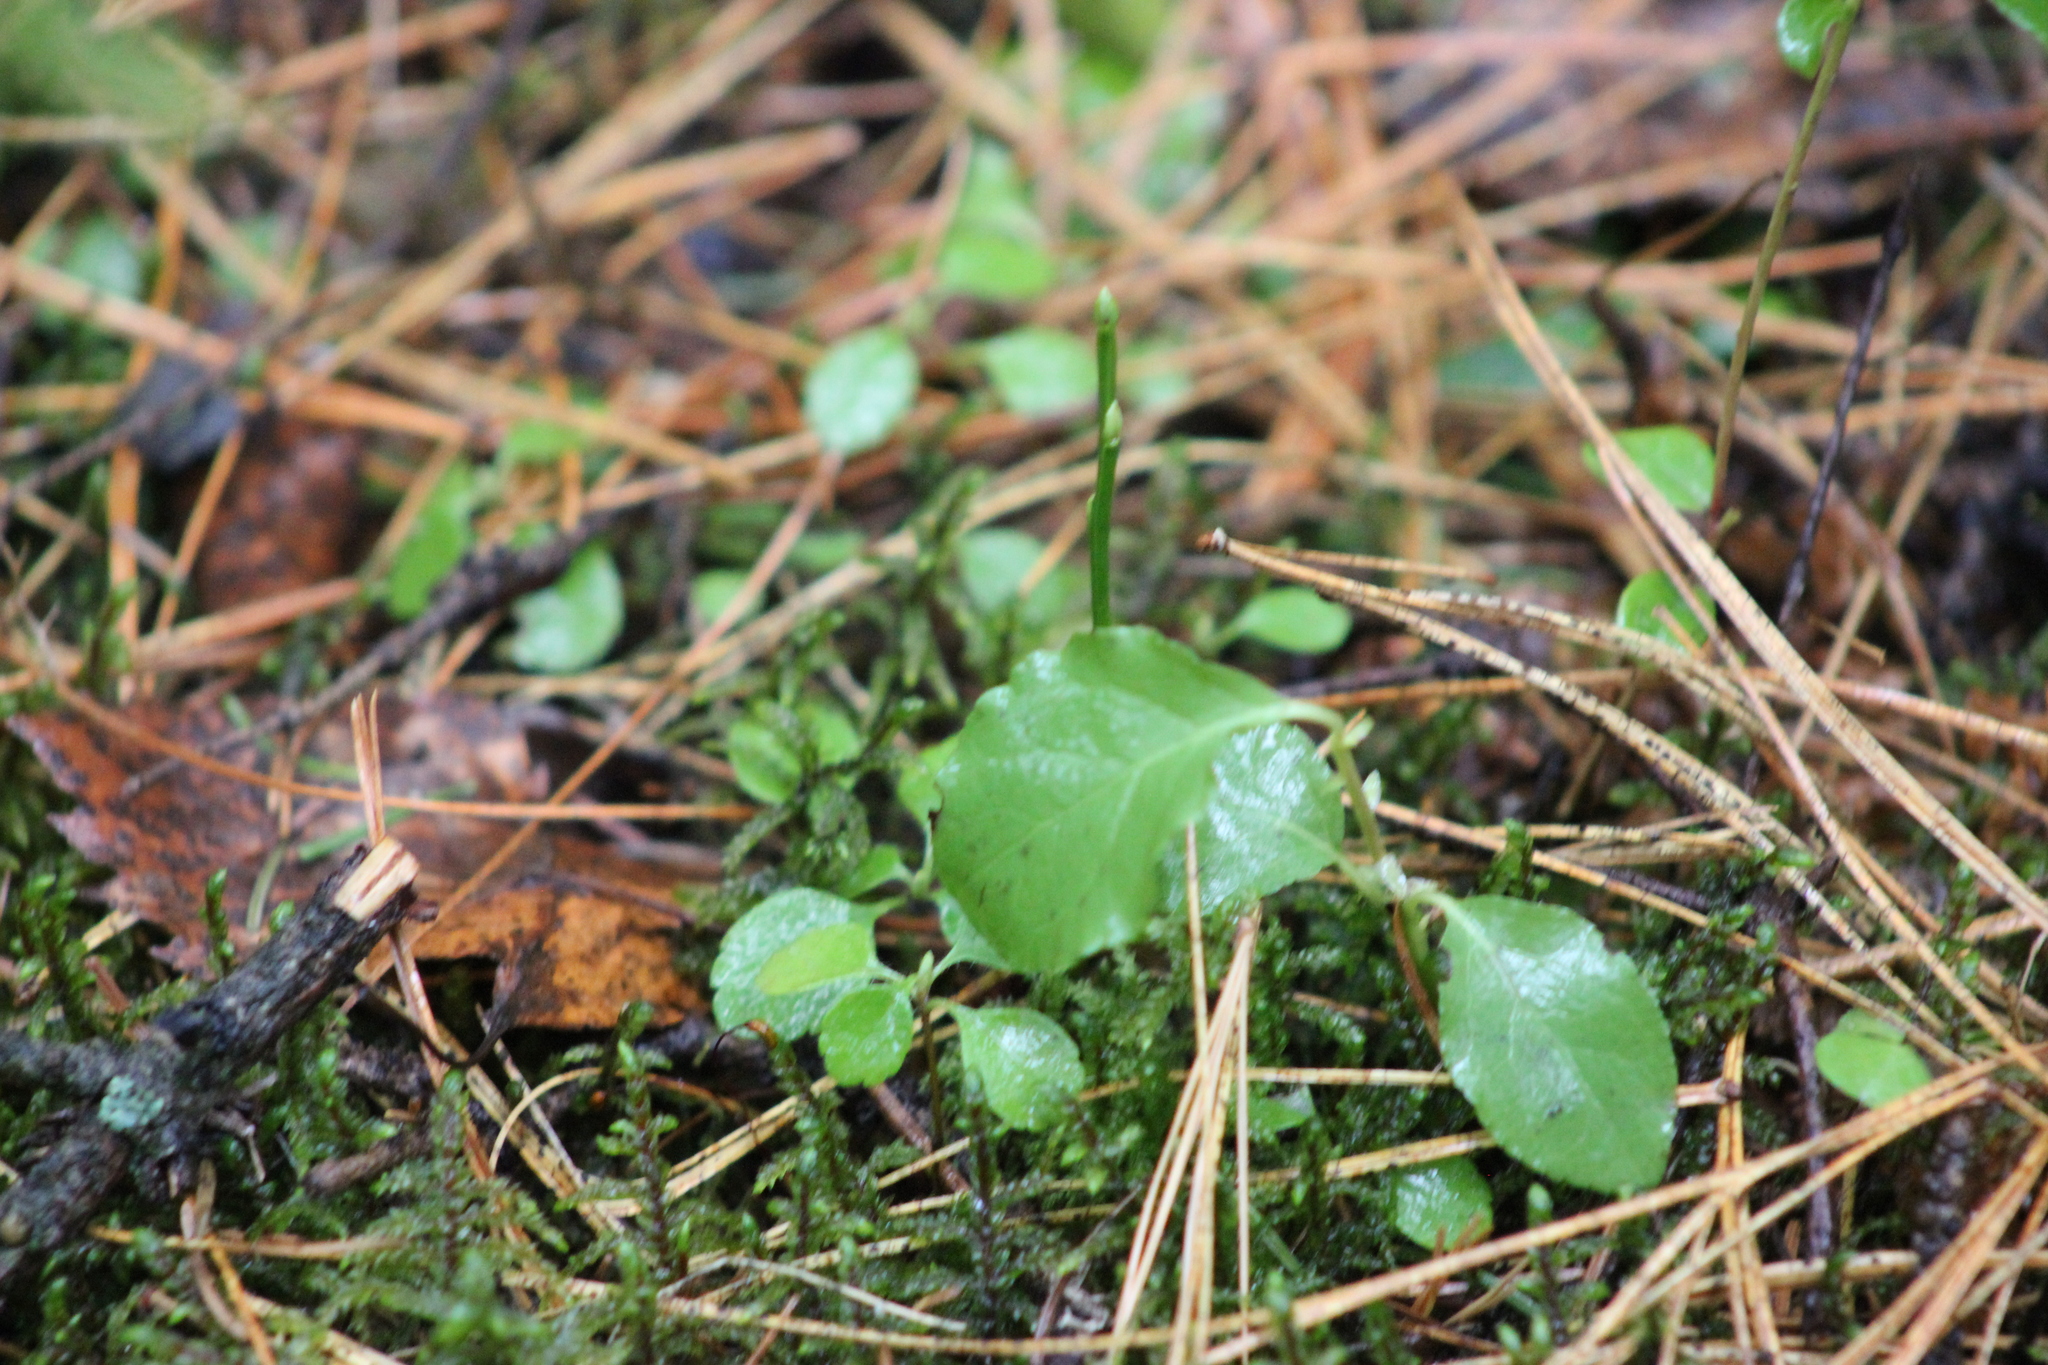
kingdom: Plantae
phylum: Tracheophyta
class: Magnoliopsida
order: Ericales
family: Ericaceae
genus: Orthilia
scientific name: Orthilia secunda
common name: One-sided orthilia
